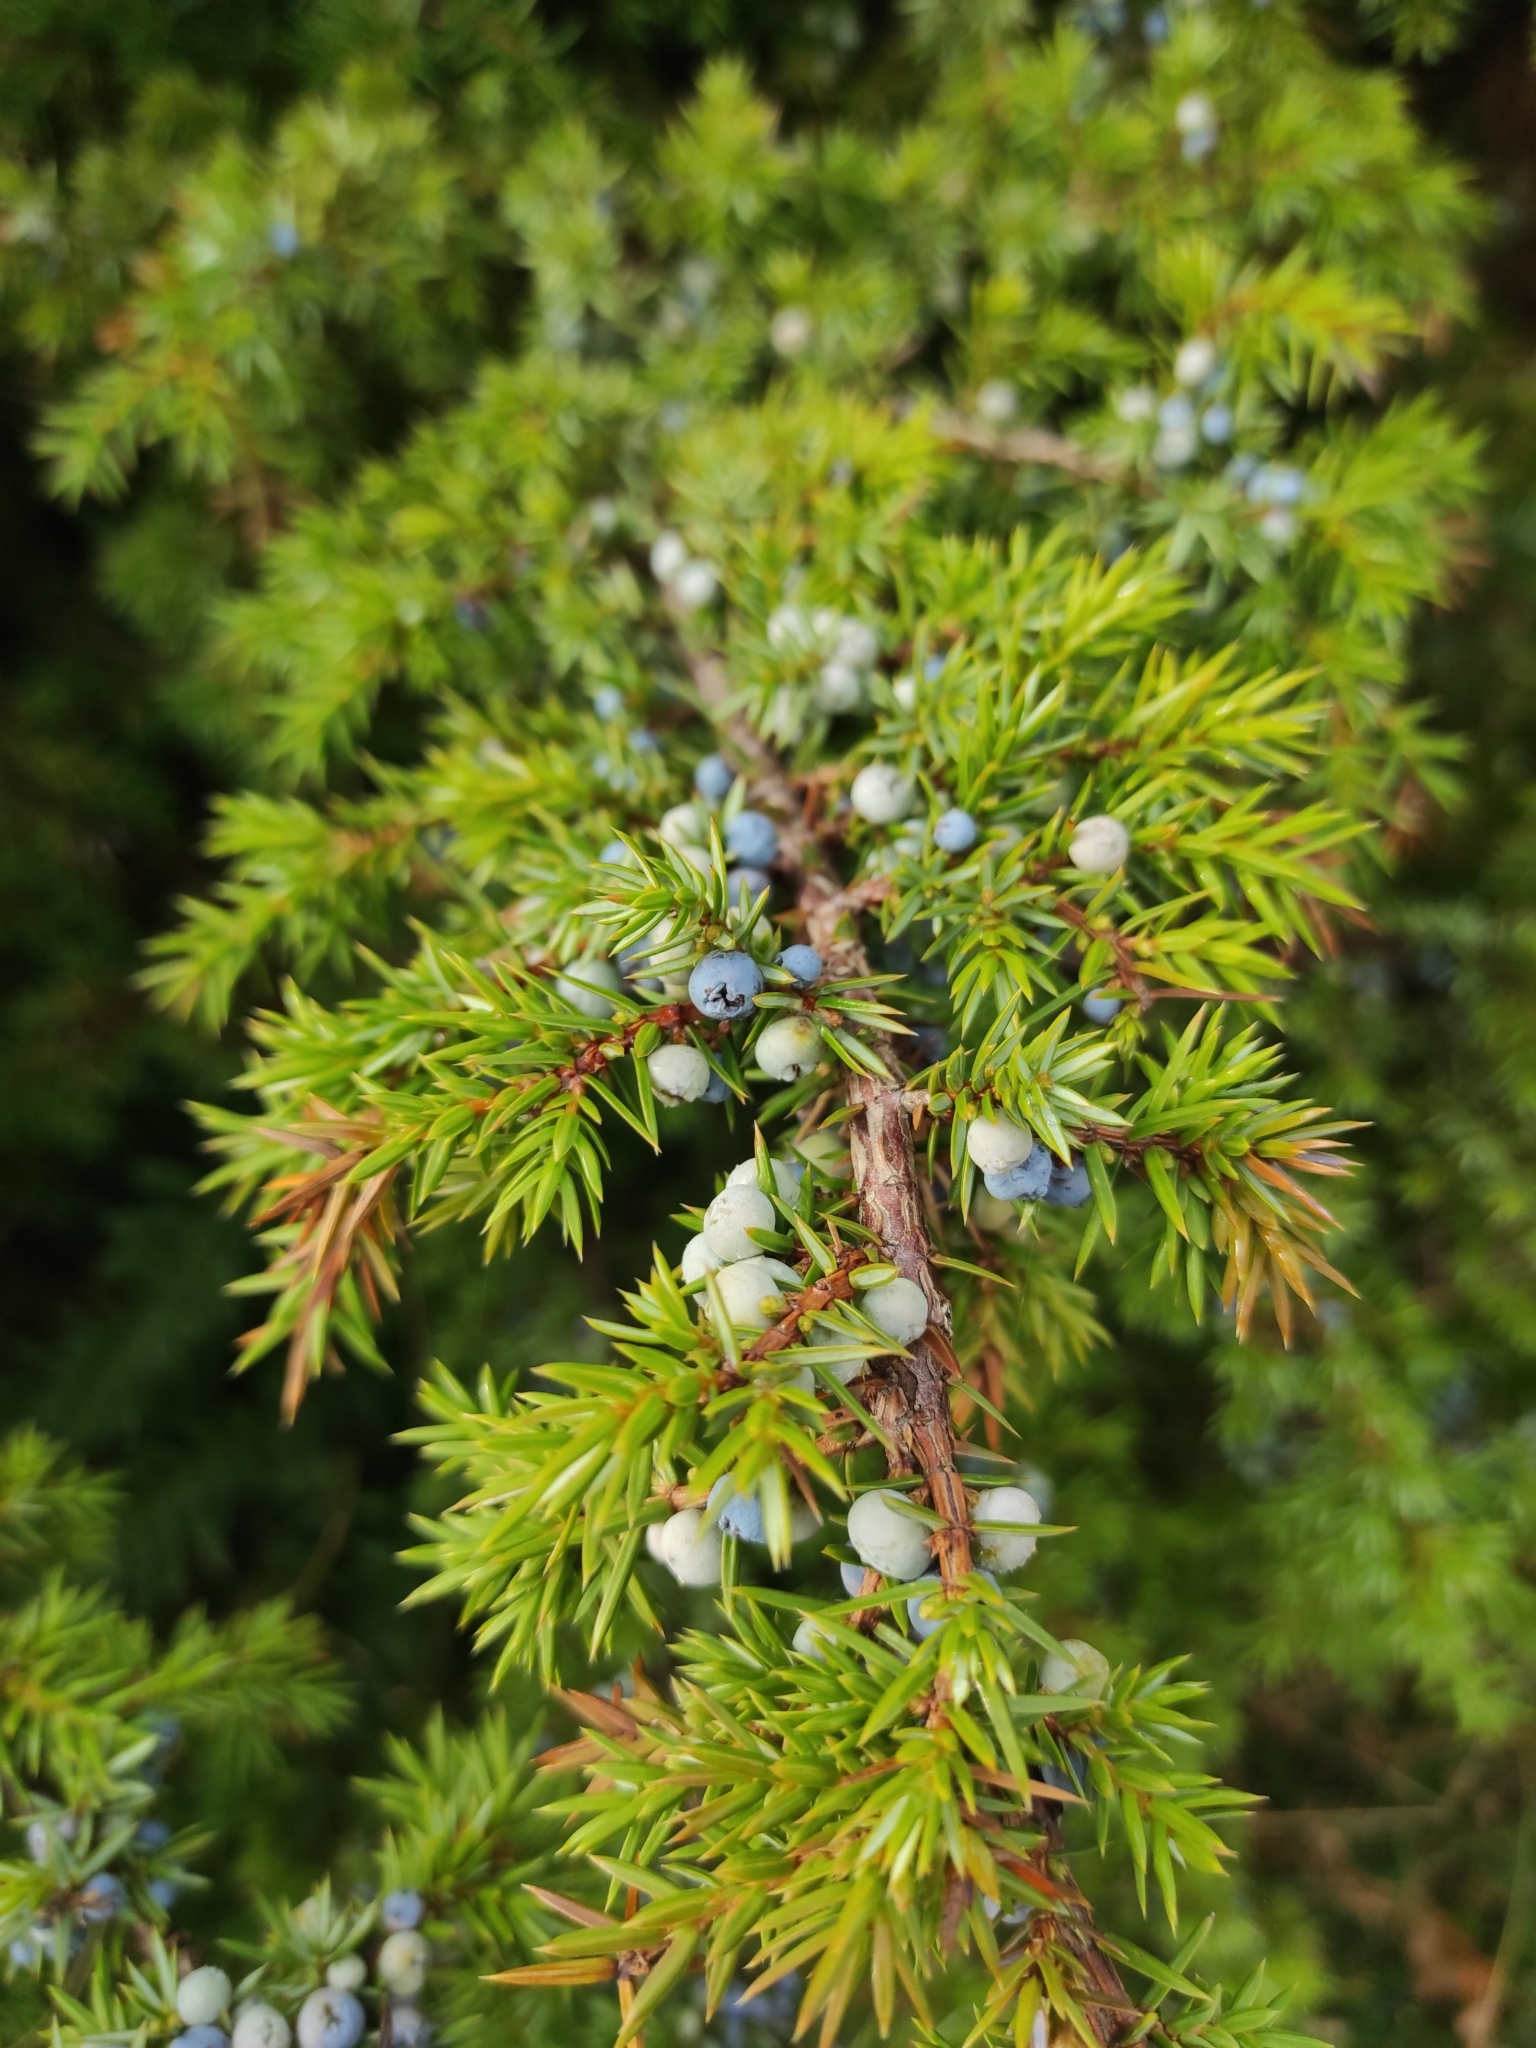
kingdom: Plantae
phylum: Tracheophyta
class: Pinopsida
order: Pinales
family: Cupressaceae
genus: Juniperus
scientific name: Juniperus communis
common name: Common juniper
